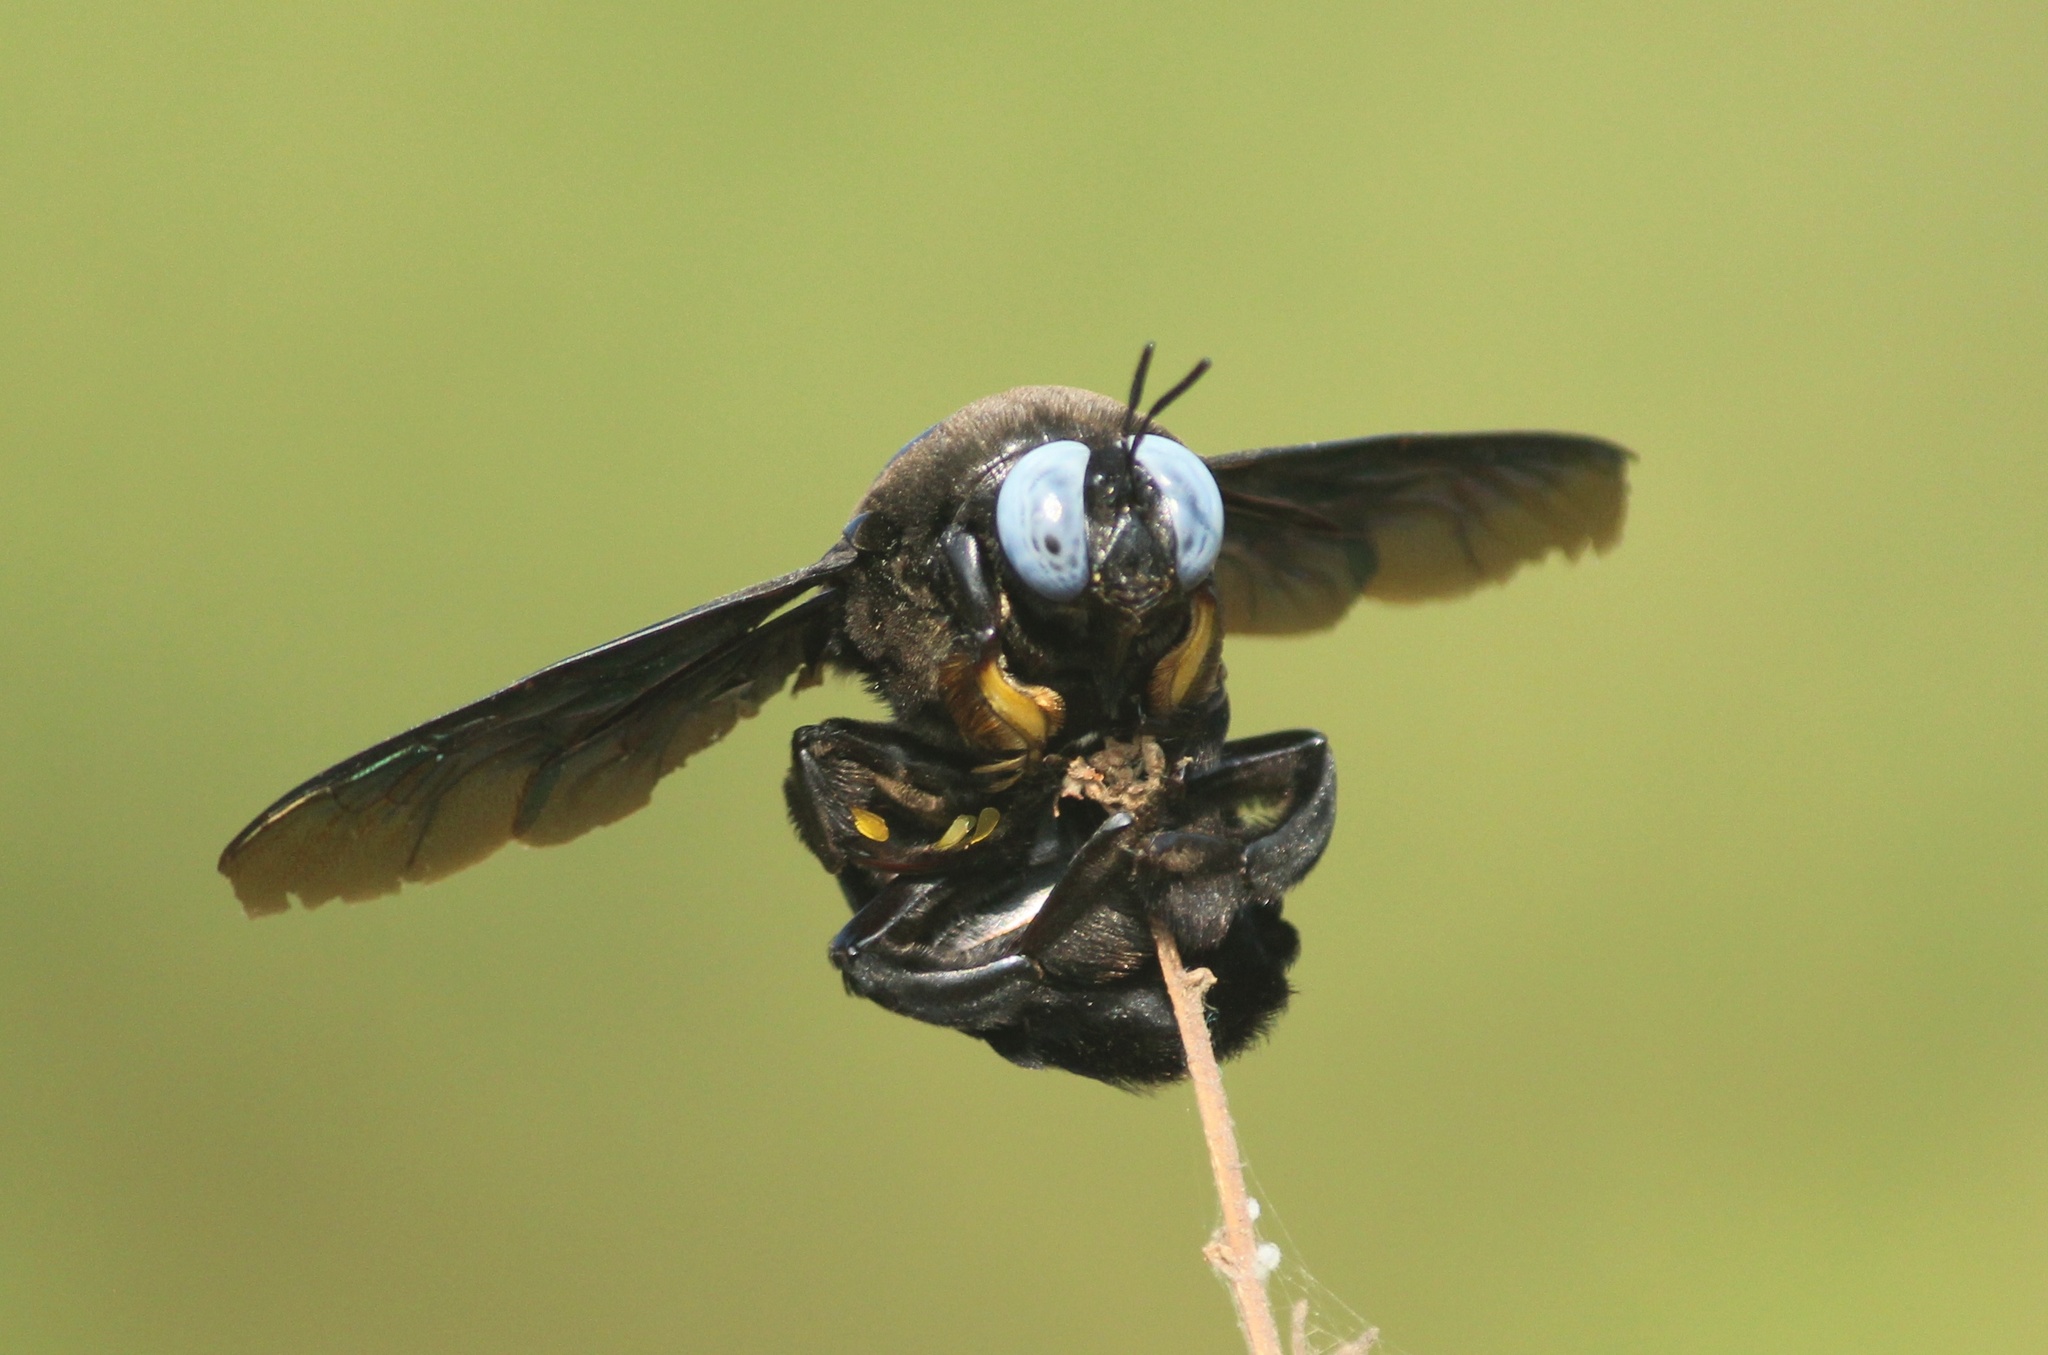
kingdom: Animalia
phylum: Arthropoda
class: Insecta
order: Hymenoptera
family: Apidae
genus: Xylocopa
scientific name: Xylocopa tenuiscapa
